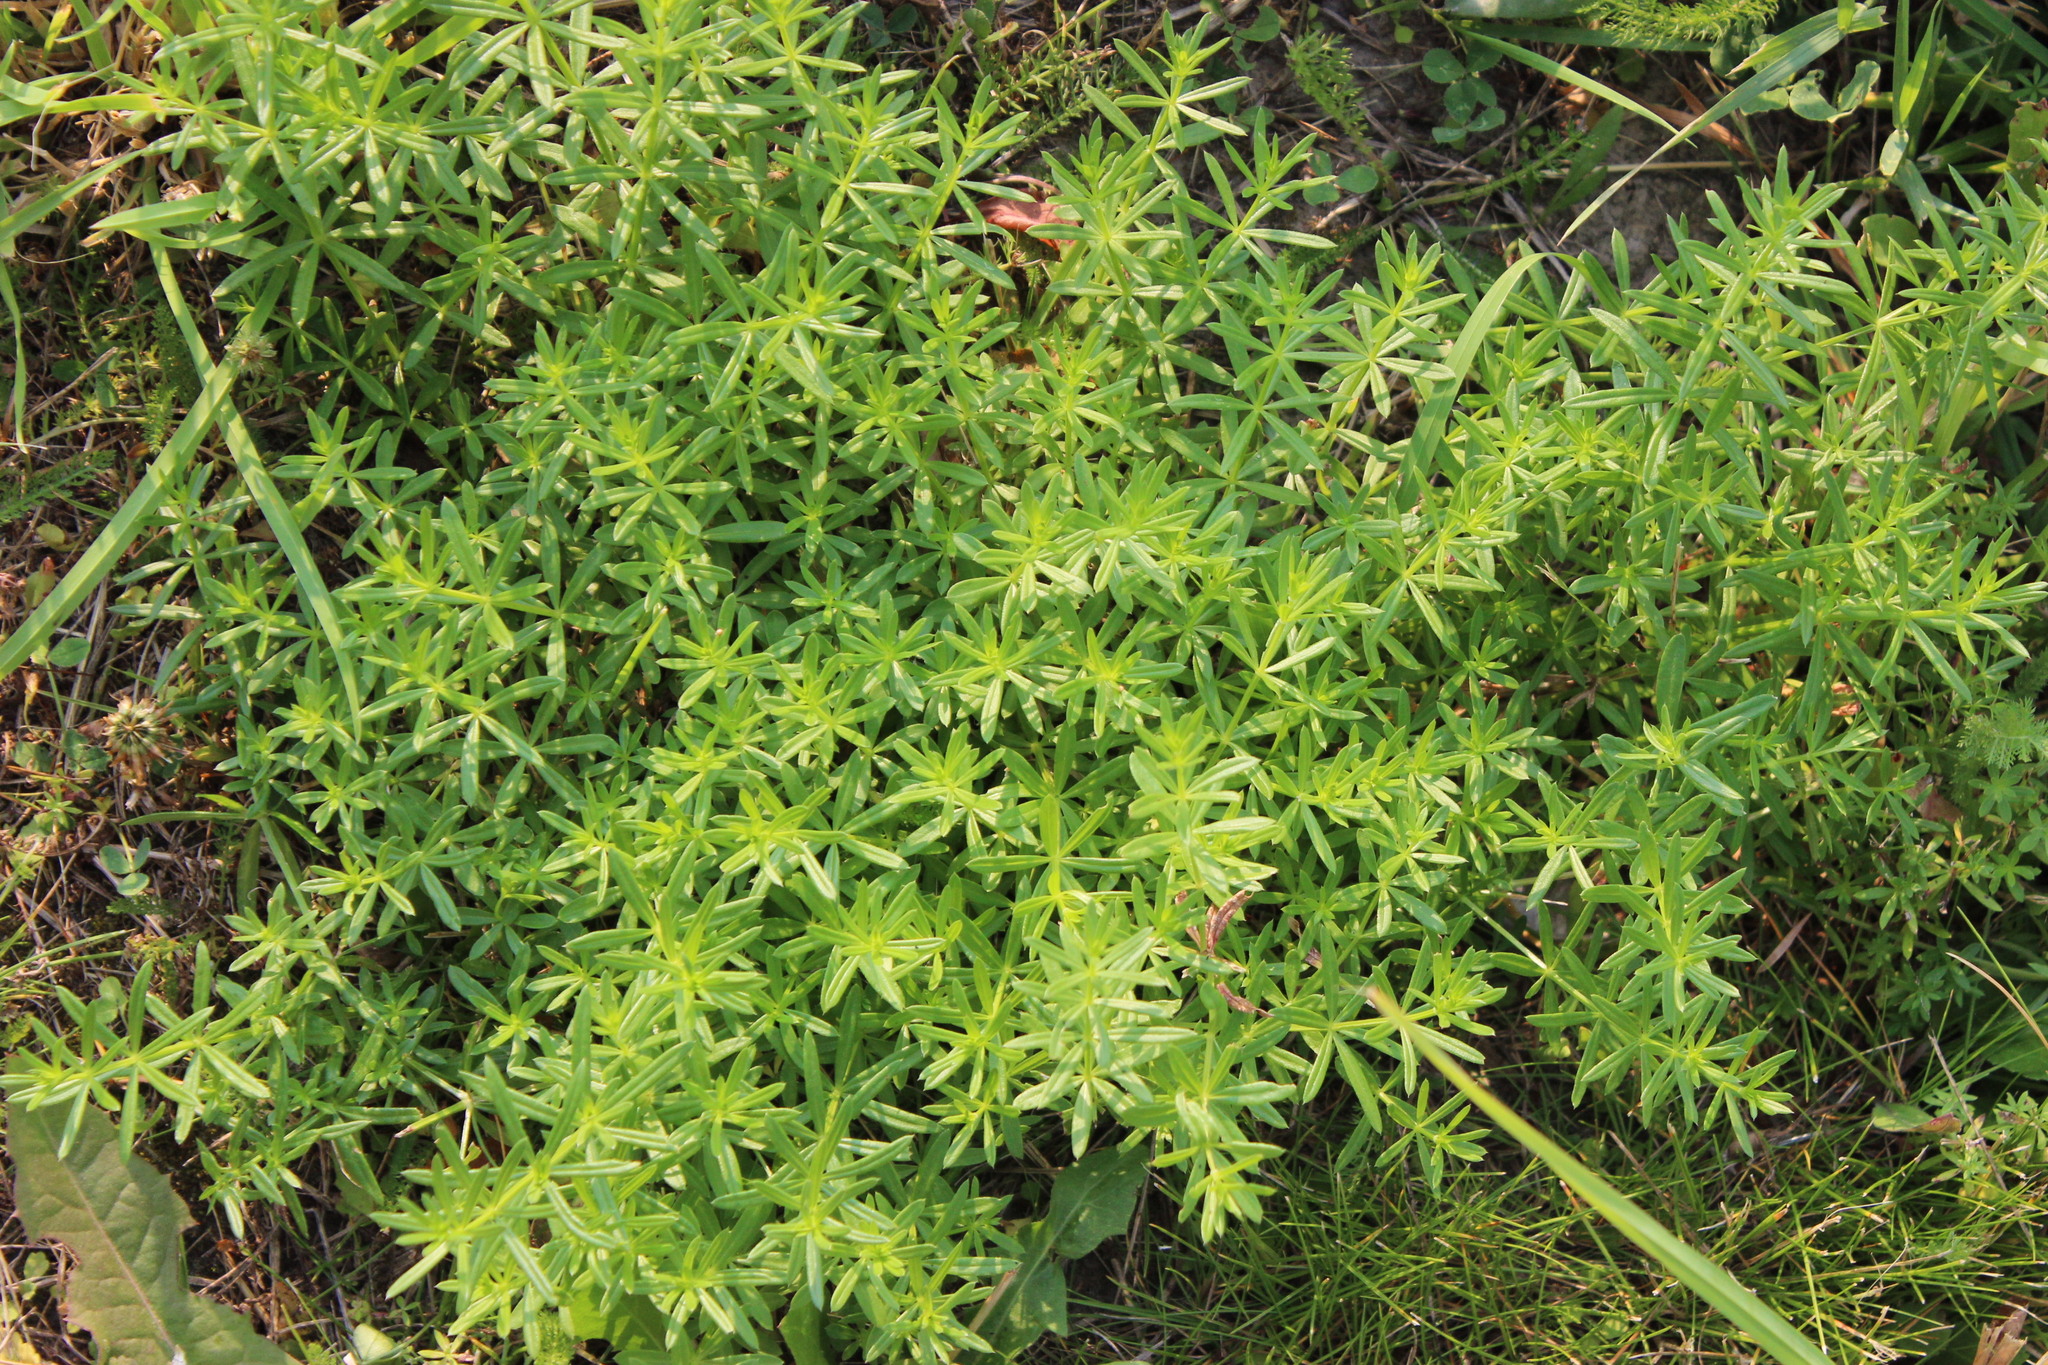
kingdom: Plantae
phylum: Tracheophyta
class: Magnoliopsida
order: Gentianales
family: Rubiaceae
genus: Galium
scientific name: Galium mollugo
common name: Hedge bedstraw
